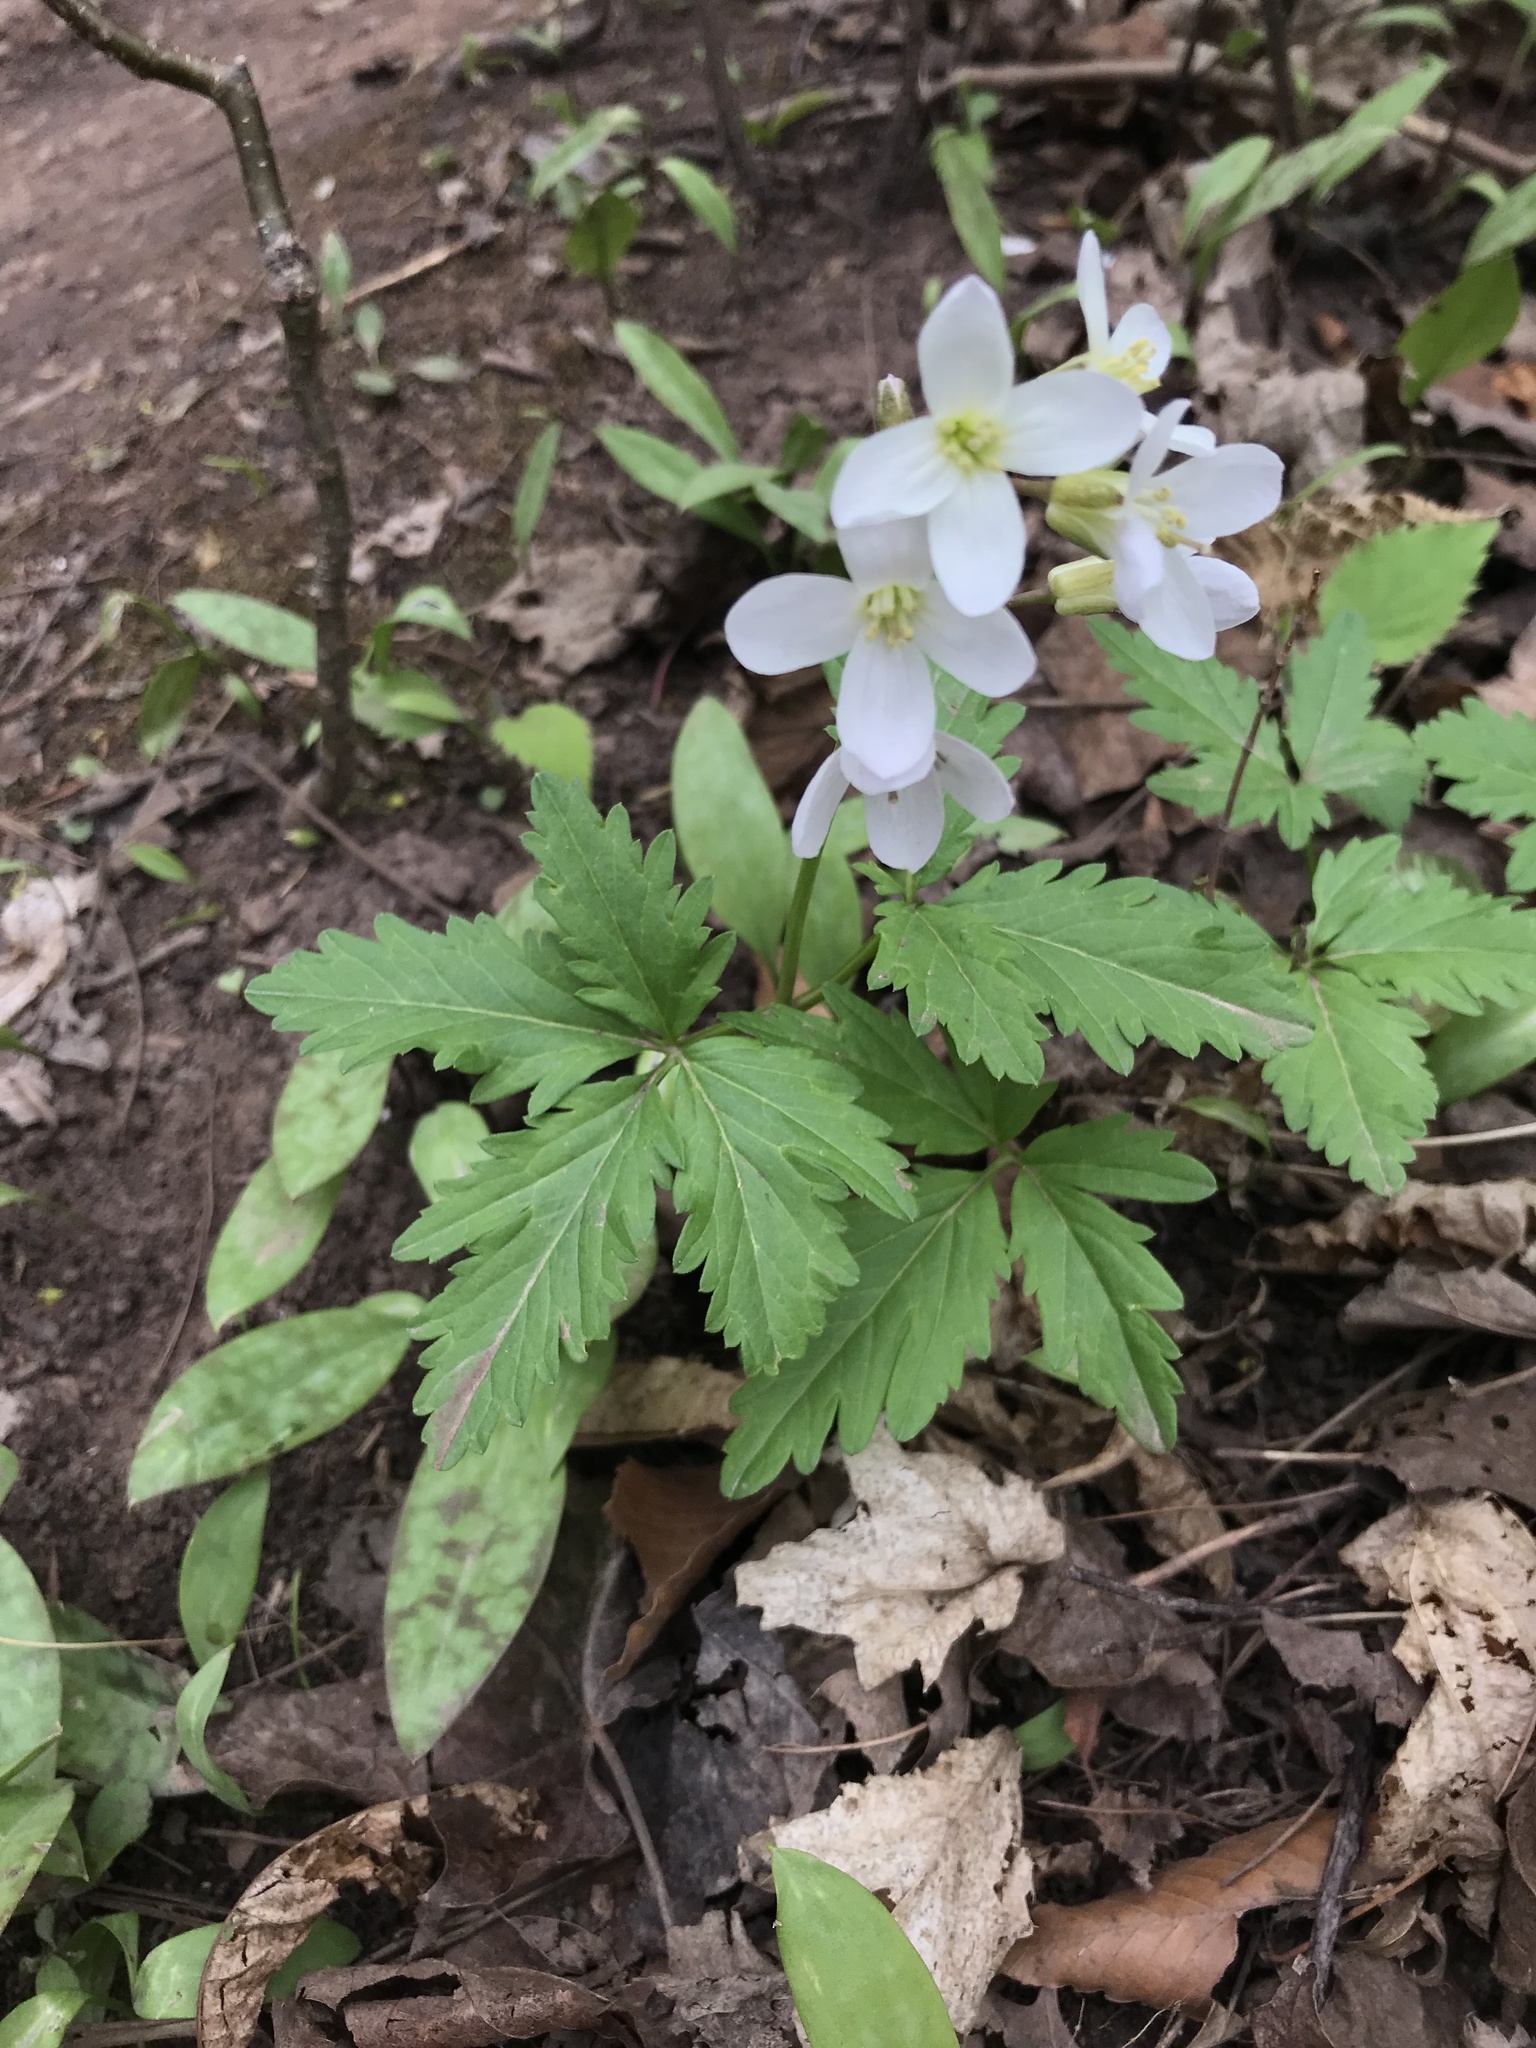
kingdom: Plantae
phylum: Tracheophyta
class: Magnoliopsida
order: Brassicales
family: Brassicaceae
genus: Cardamine
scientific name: Cardamine diphylla
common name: Broad-leaved toothwort
